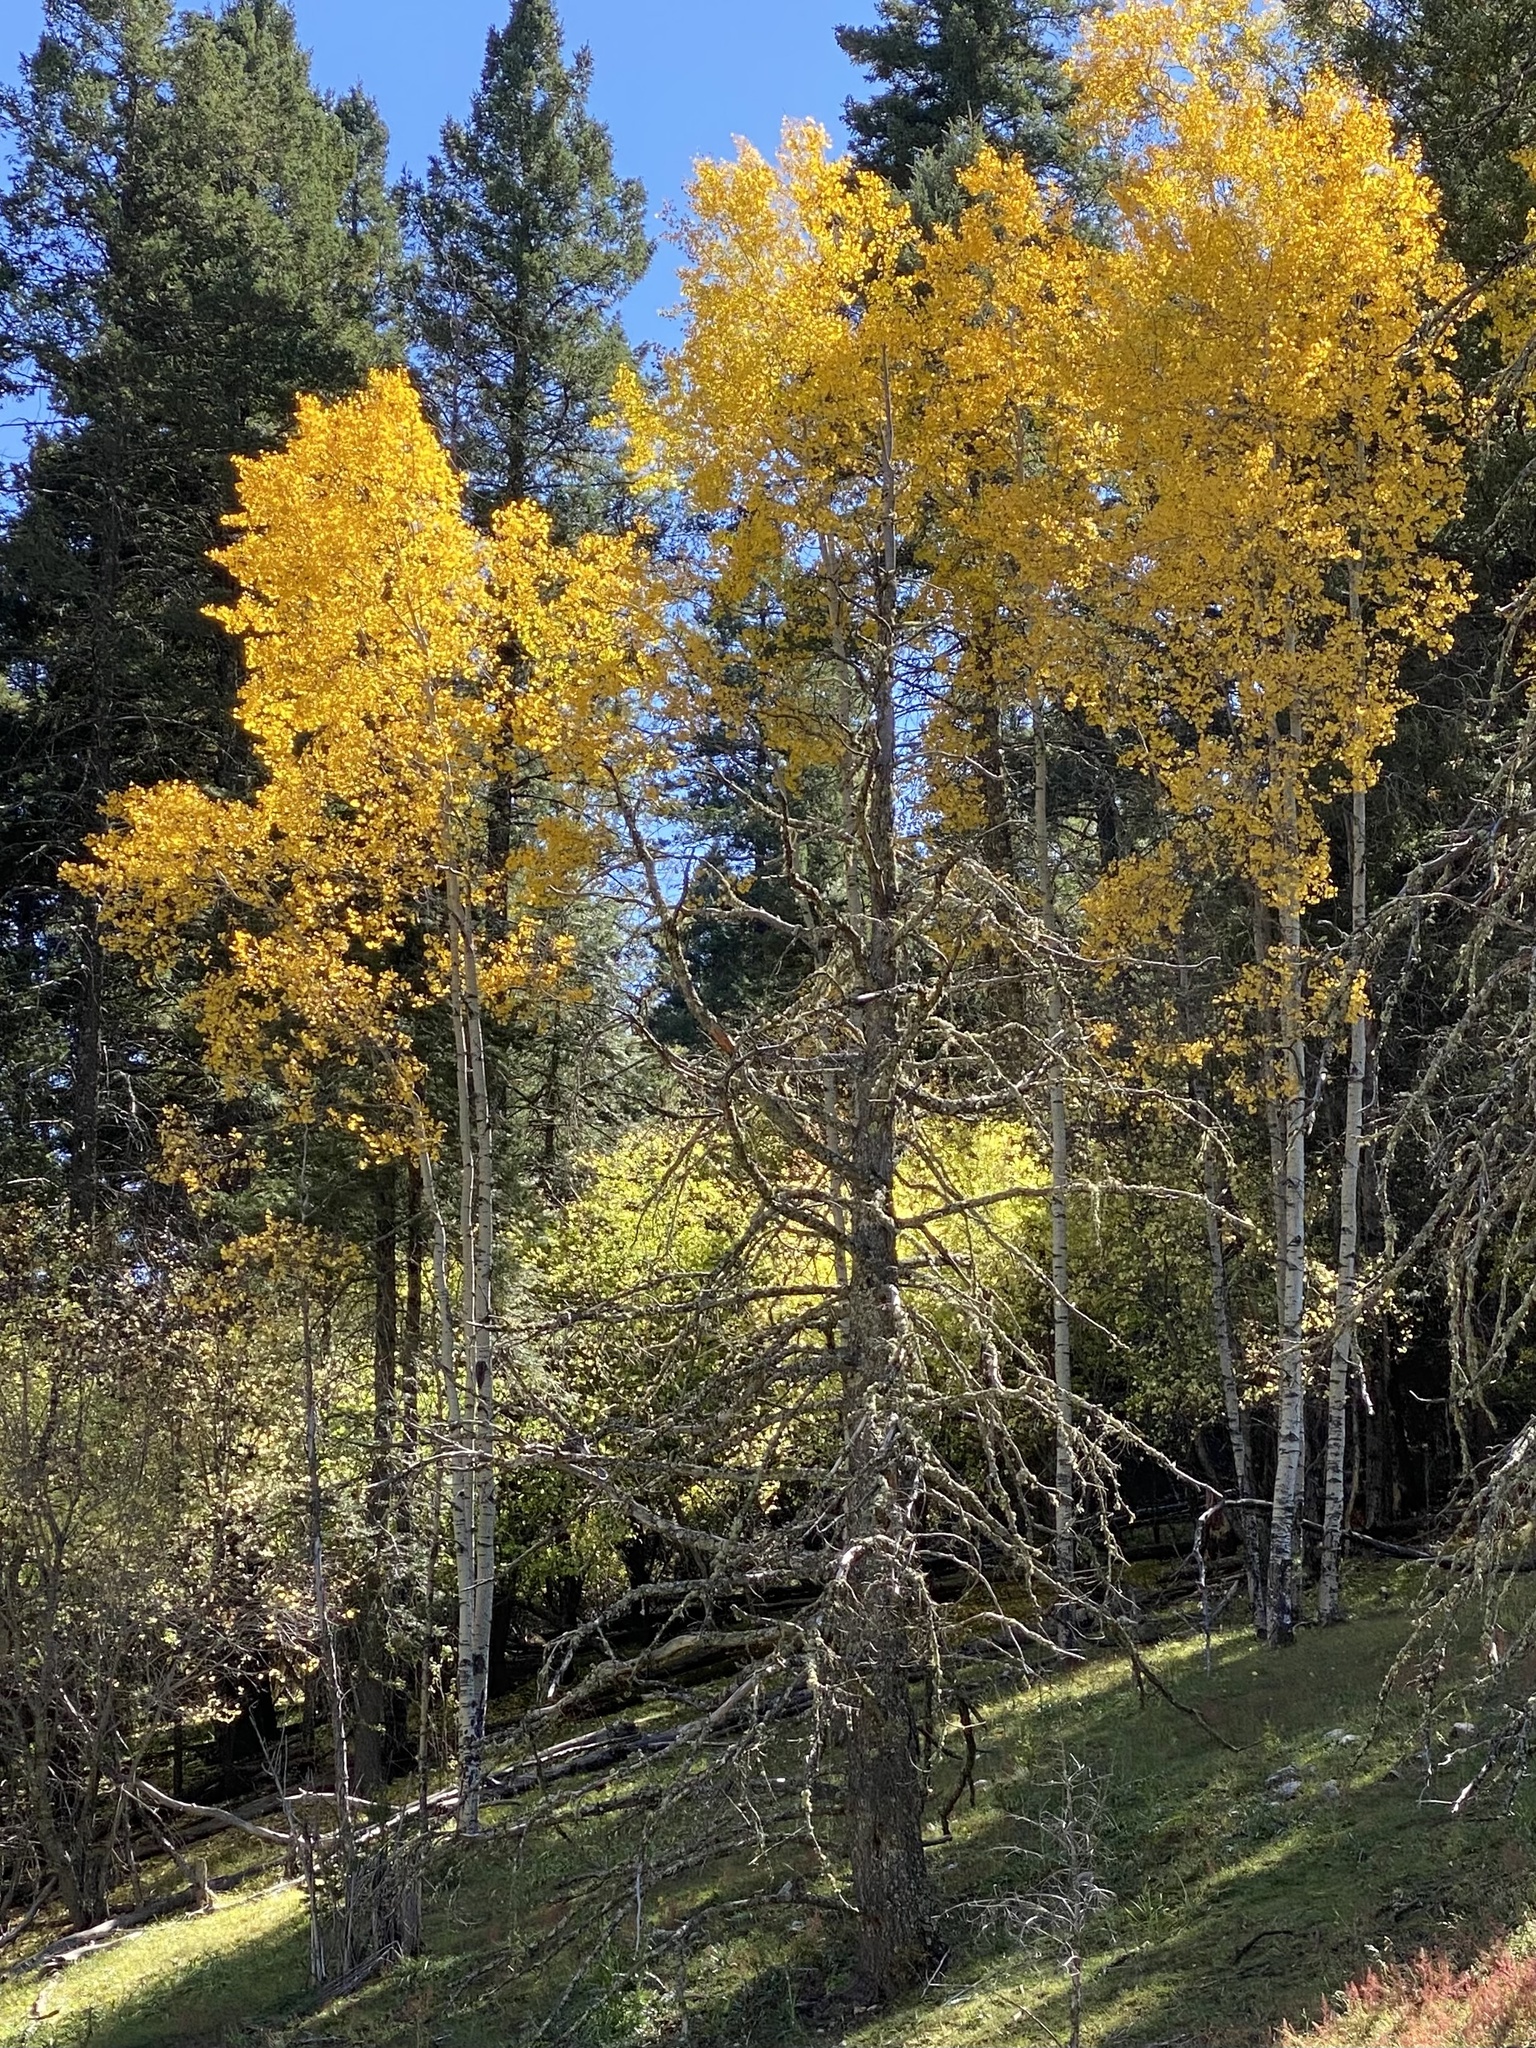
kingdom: Plantae
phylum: Tracheophyta
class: Magnoliopsida
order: Malpighiales
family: Salicaceae
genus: Populus
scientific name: Populus tremuloides
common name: Quaking aspen
